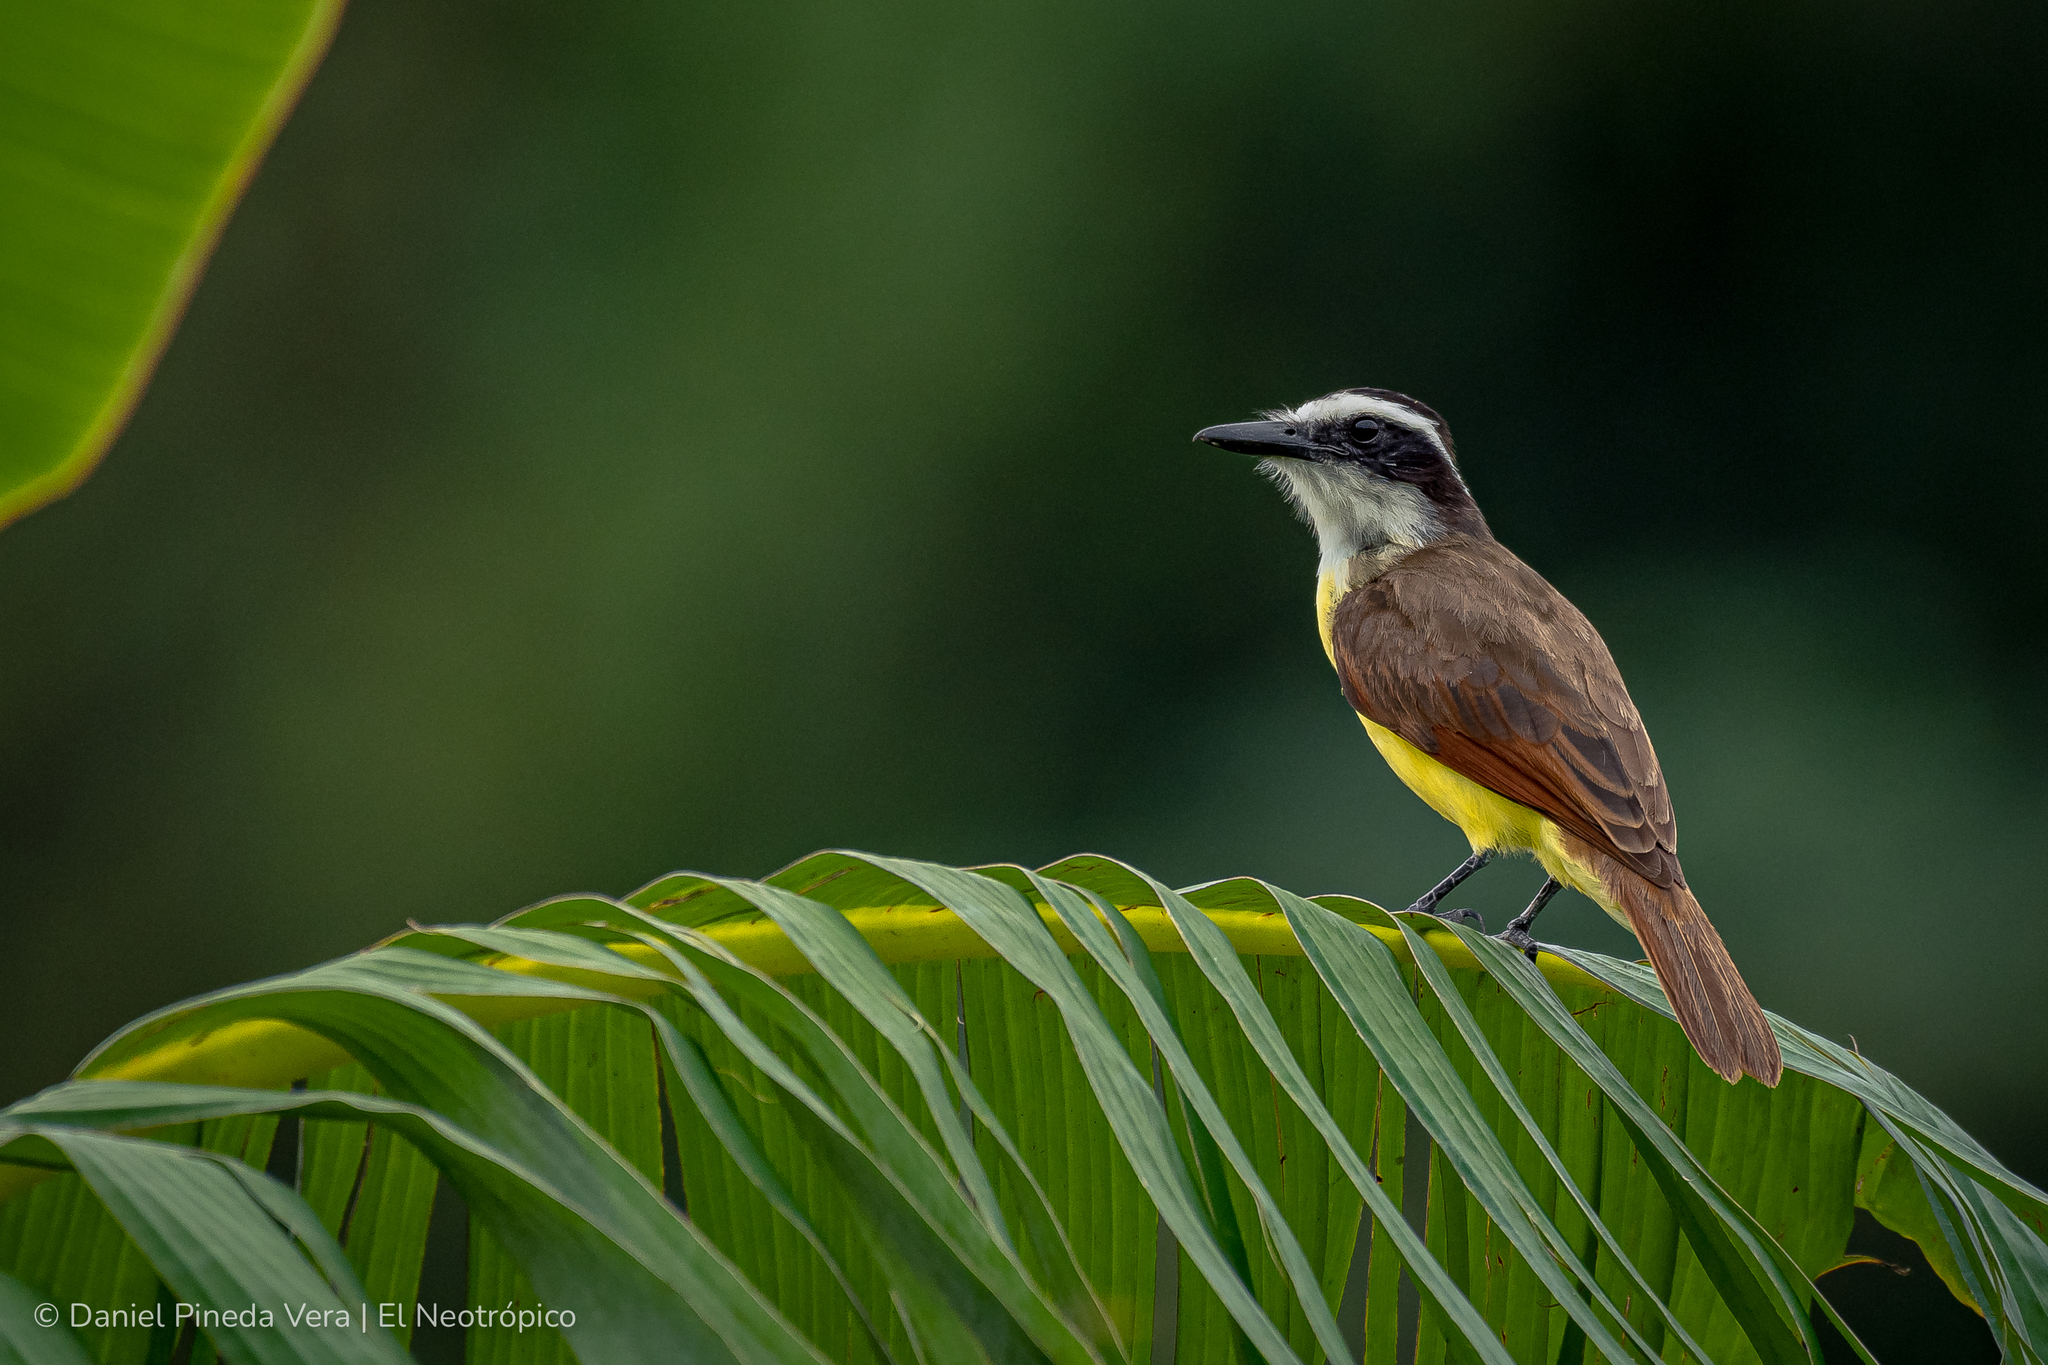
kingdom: Animalia
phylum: Chordata
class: Aves
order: Passeriformes
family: Tyrannidae
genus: Pitangus
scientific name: Pitangus sulphuratus
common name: Great kiskadee
